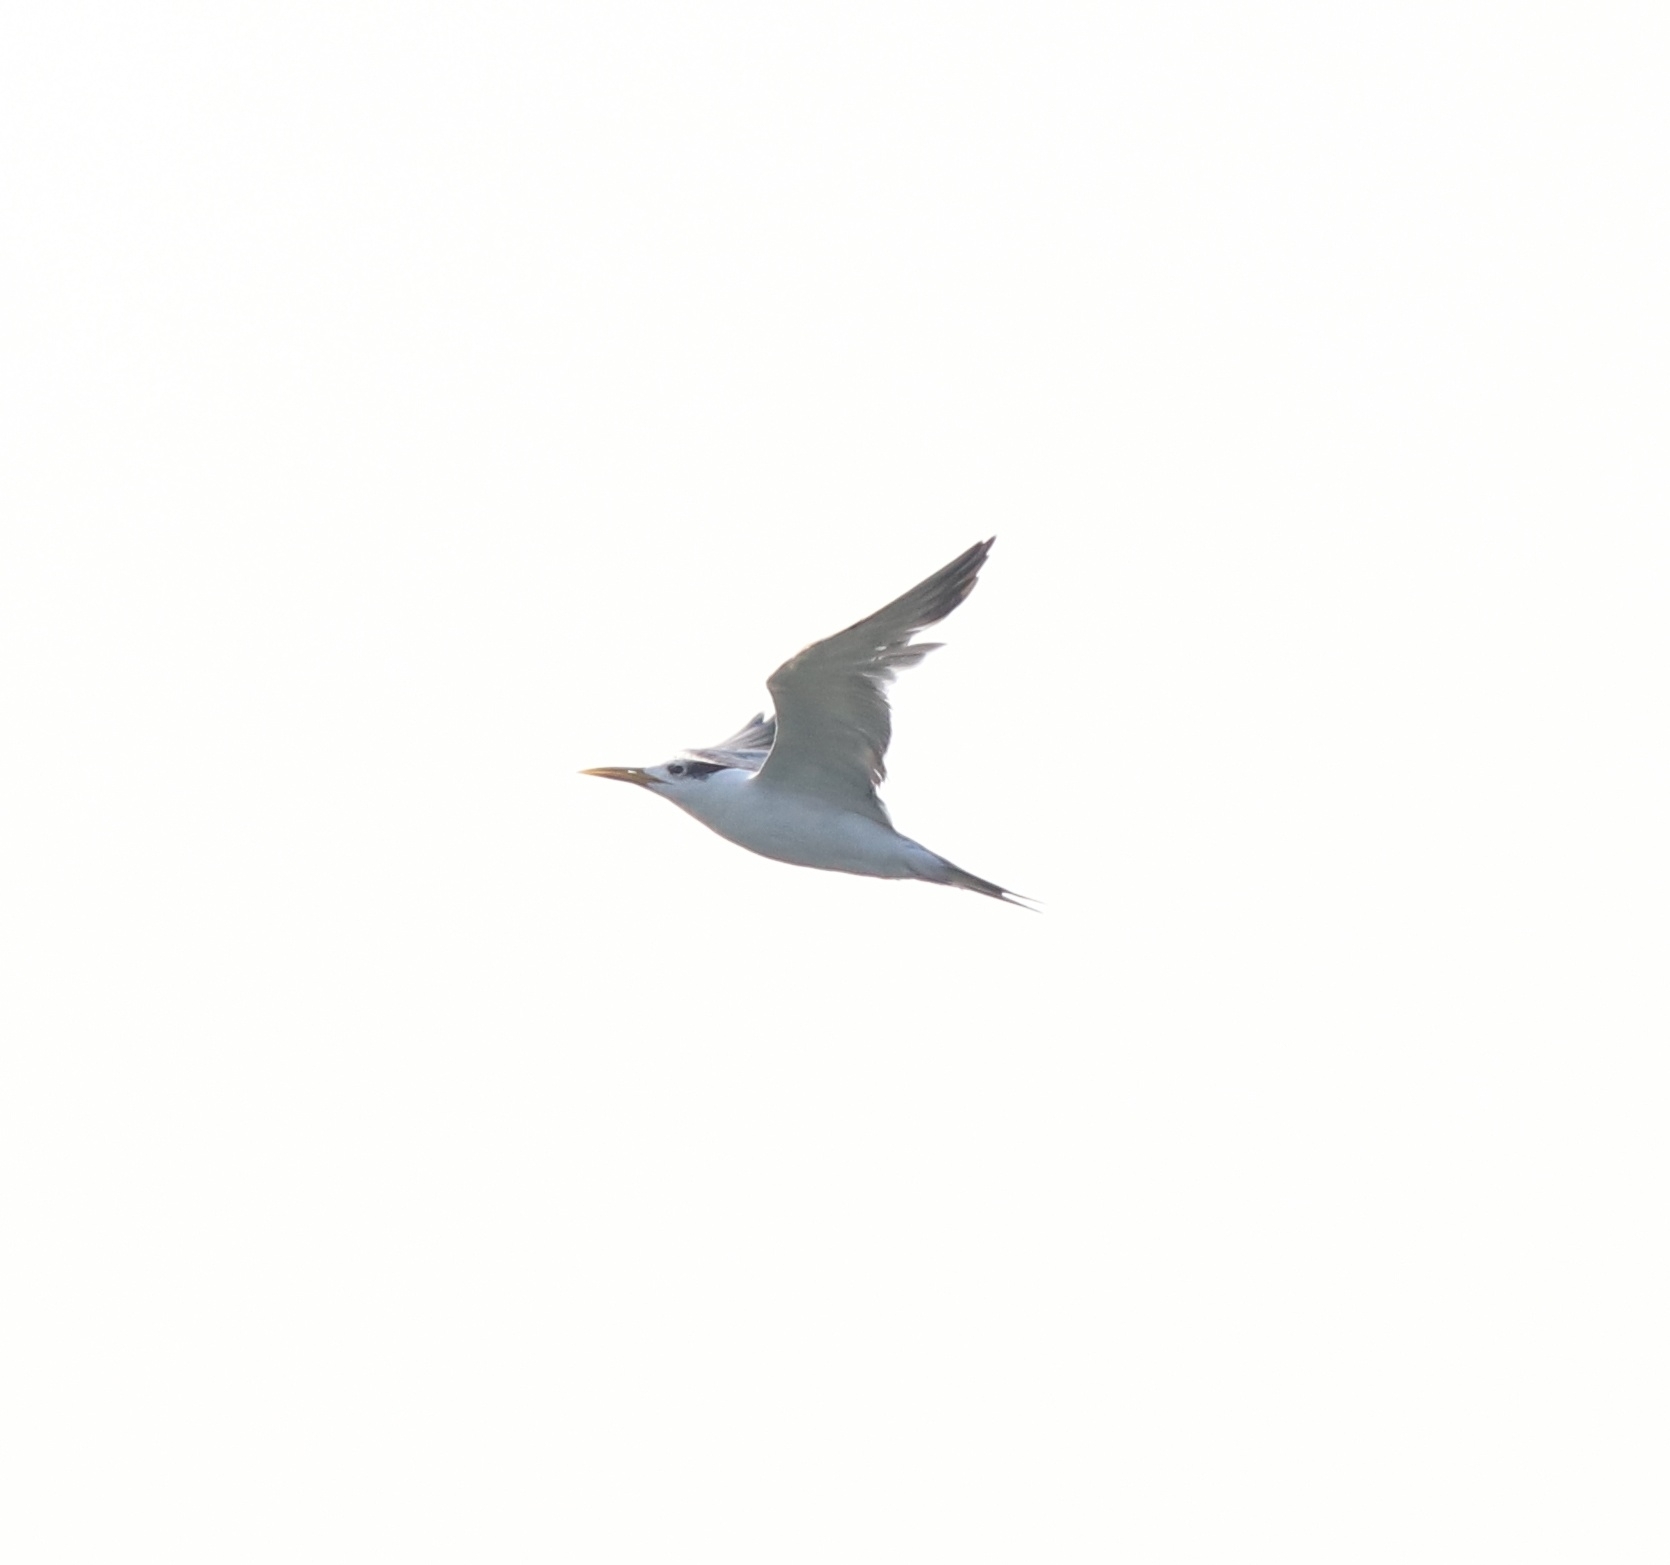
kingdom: Animalia
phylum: Chordata
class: Aves
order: Charadriiformes
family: Laridae
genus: Thalasseus
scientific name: Thalasseus bergii
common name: Greater crested tern
